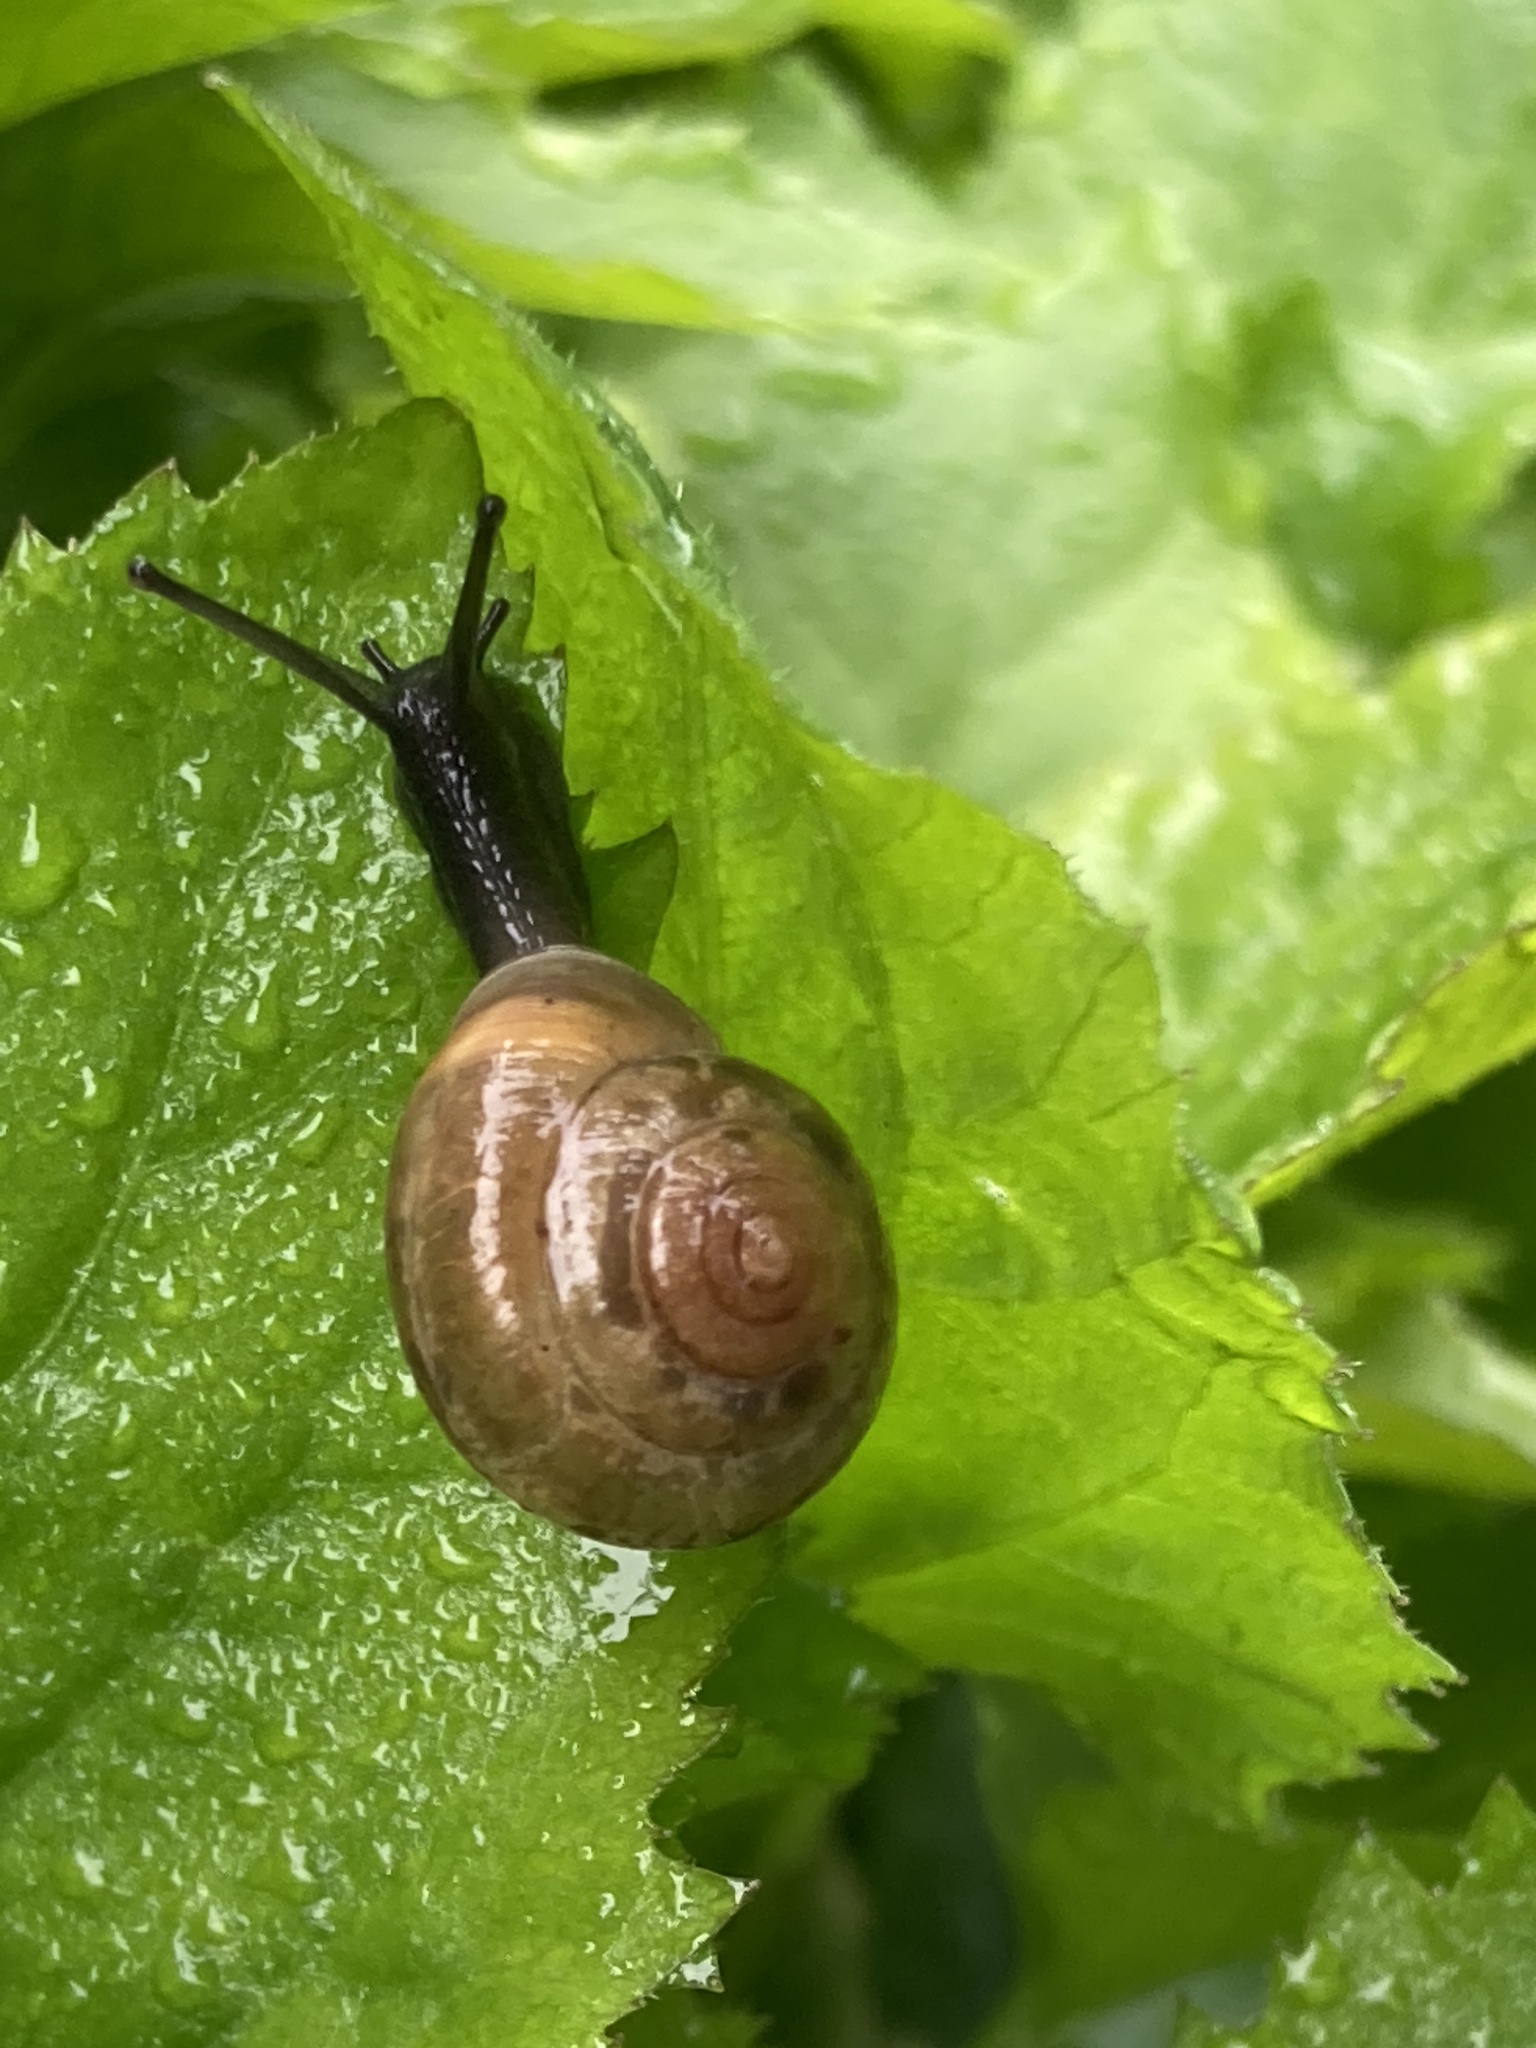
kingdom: Animalia
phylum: Mollusca
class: Gastropoda
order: Stylommatophora
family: Hygromiidae
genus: Trochulus
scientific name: Trochulus striolatus
